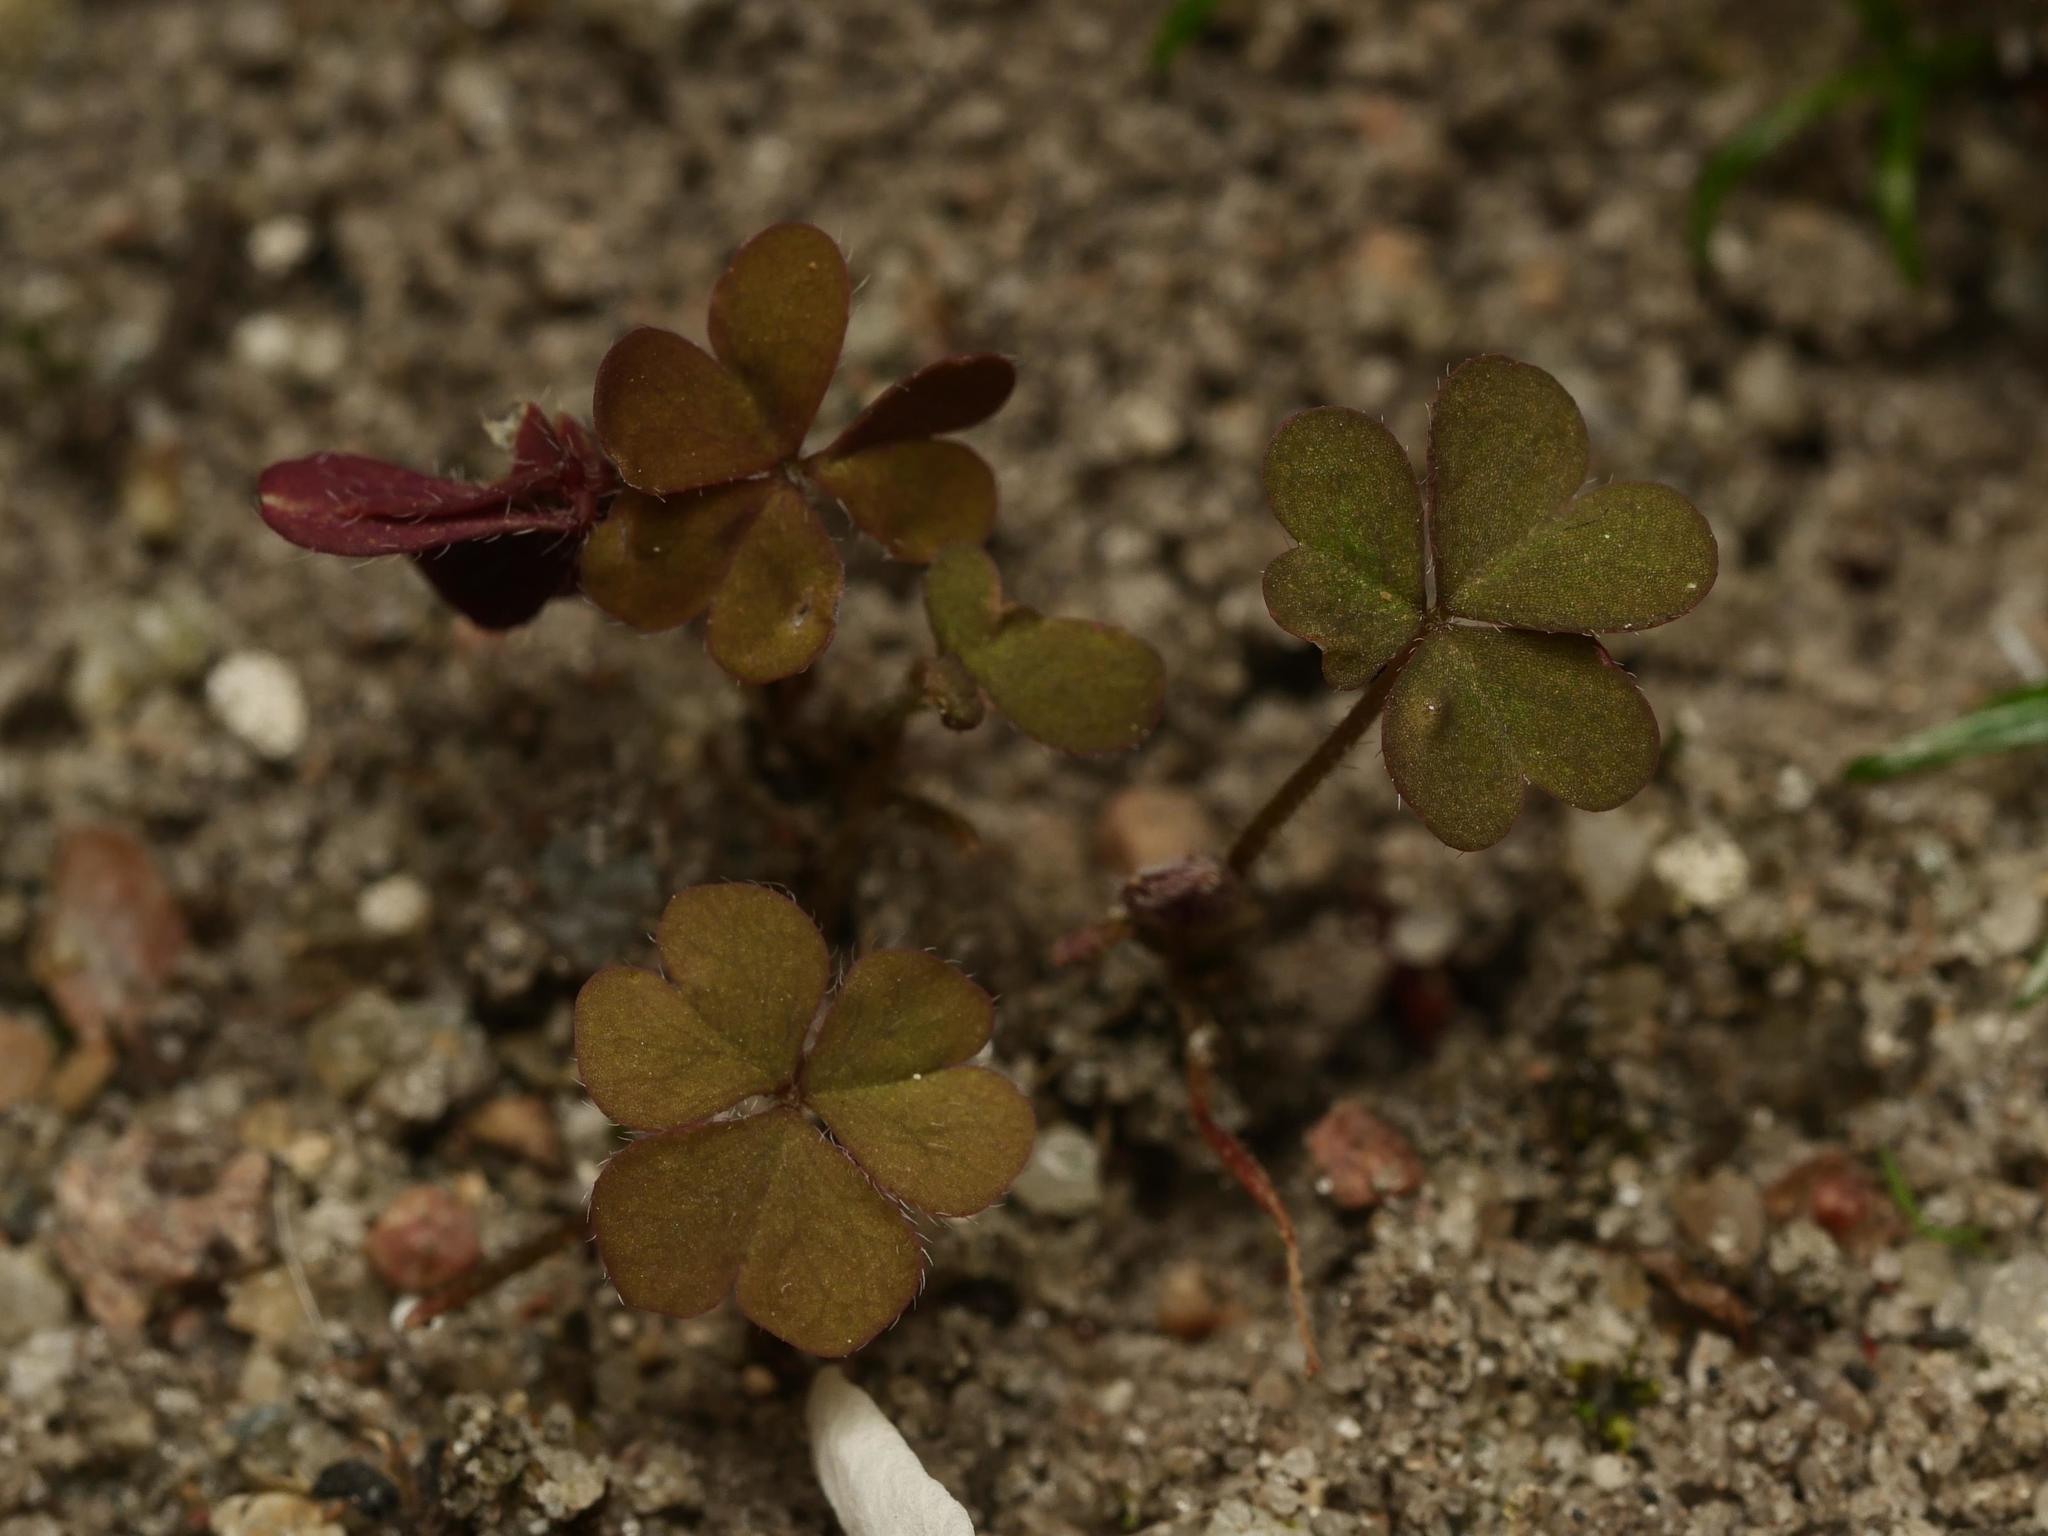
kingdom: Plantae
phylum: Tracheophyta
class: Magnoliopsida
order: Oxalidales
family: Oxalidaceae
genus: Oxalis
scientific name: Oxalis corniculata
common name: Procumbent yellow-sorrel
